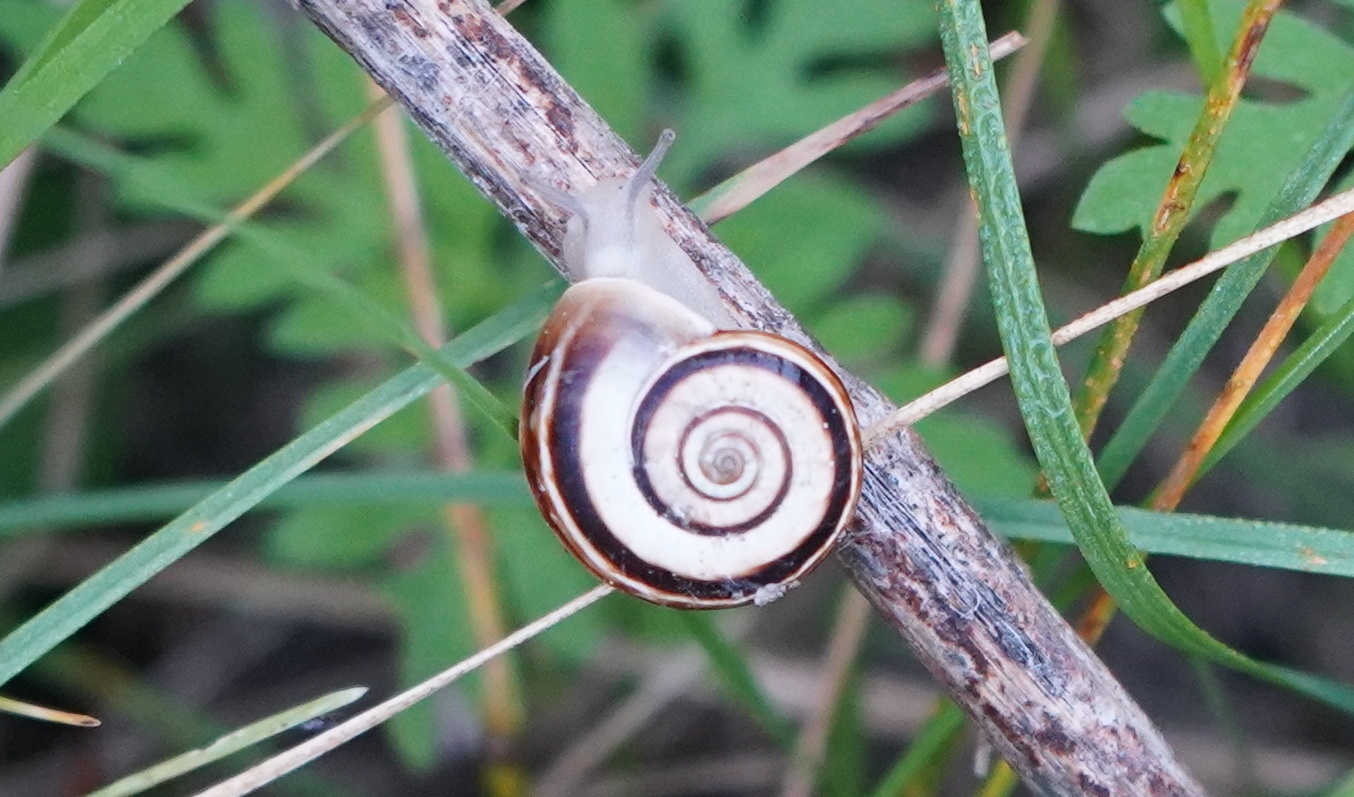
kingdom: Animalia
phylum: Mollusca
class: Gastropoda
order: Stylommatophora
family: Geomitridae
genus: Xerolenta
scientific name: Xerolenta obvia
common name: White heath snail
